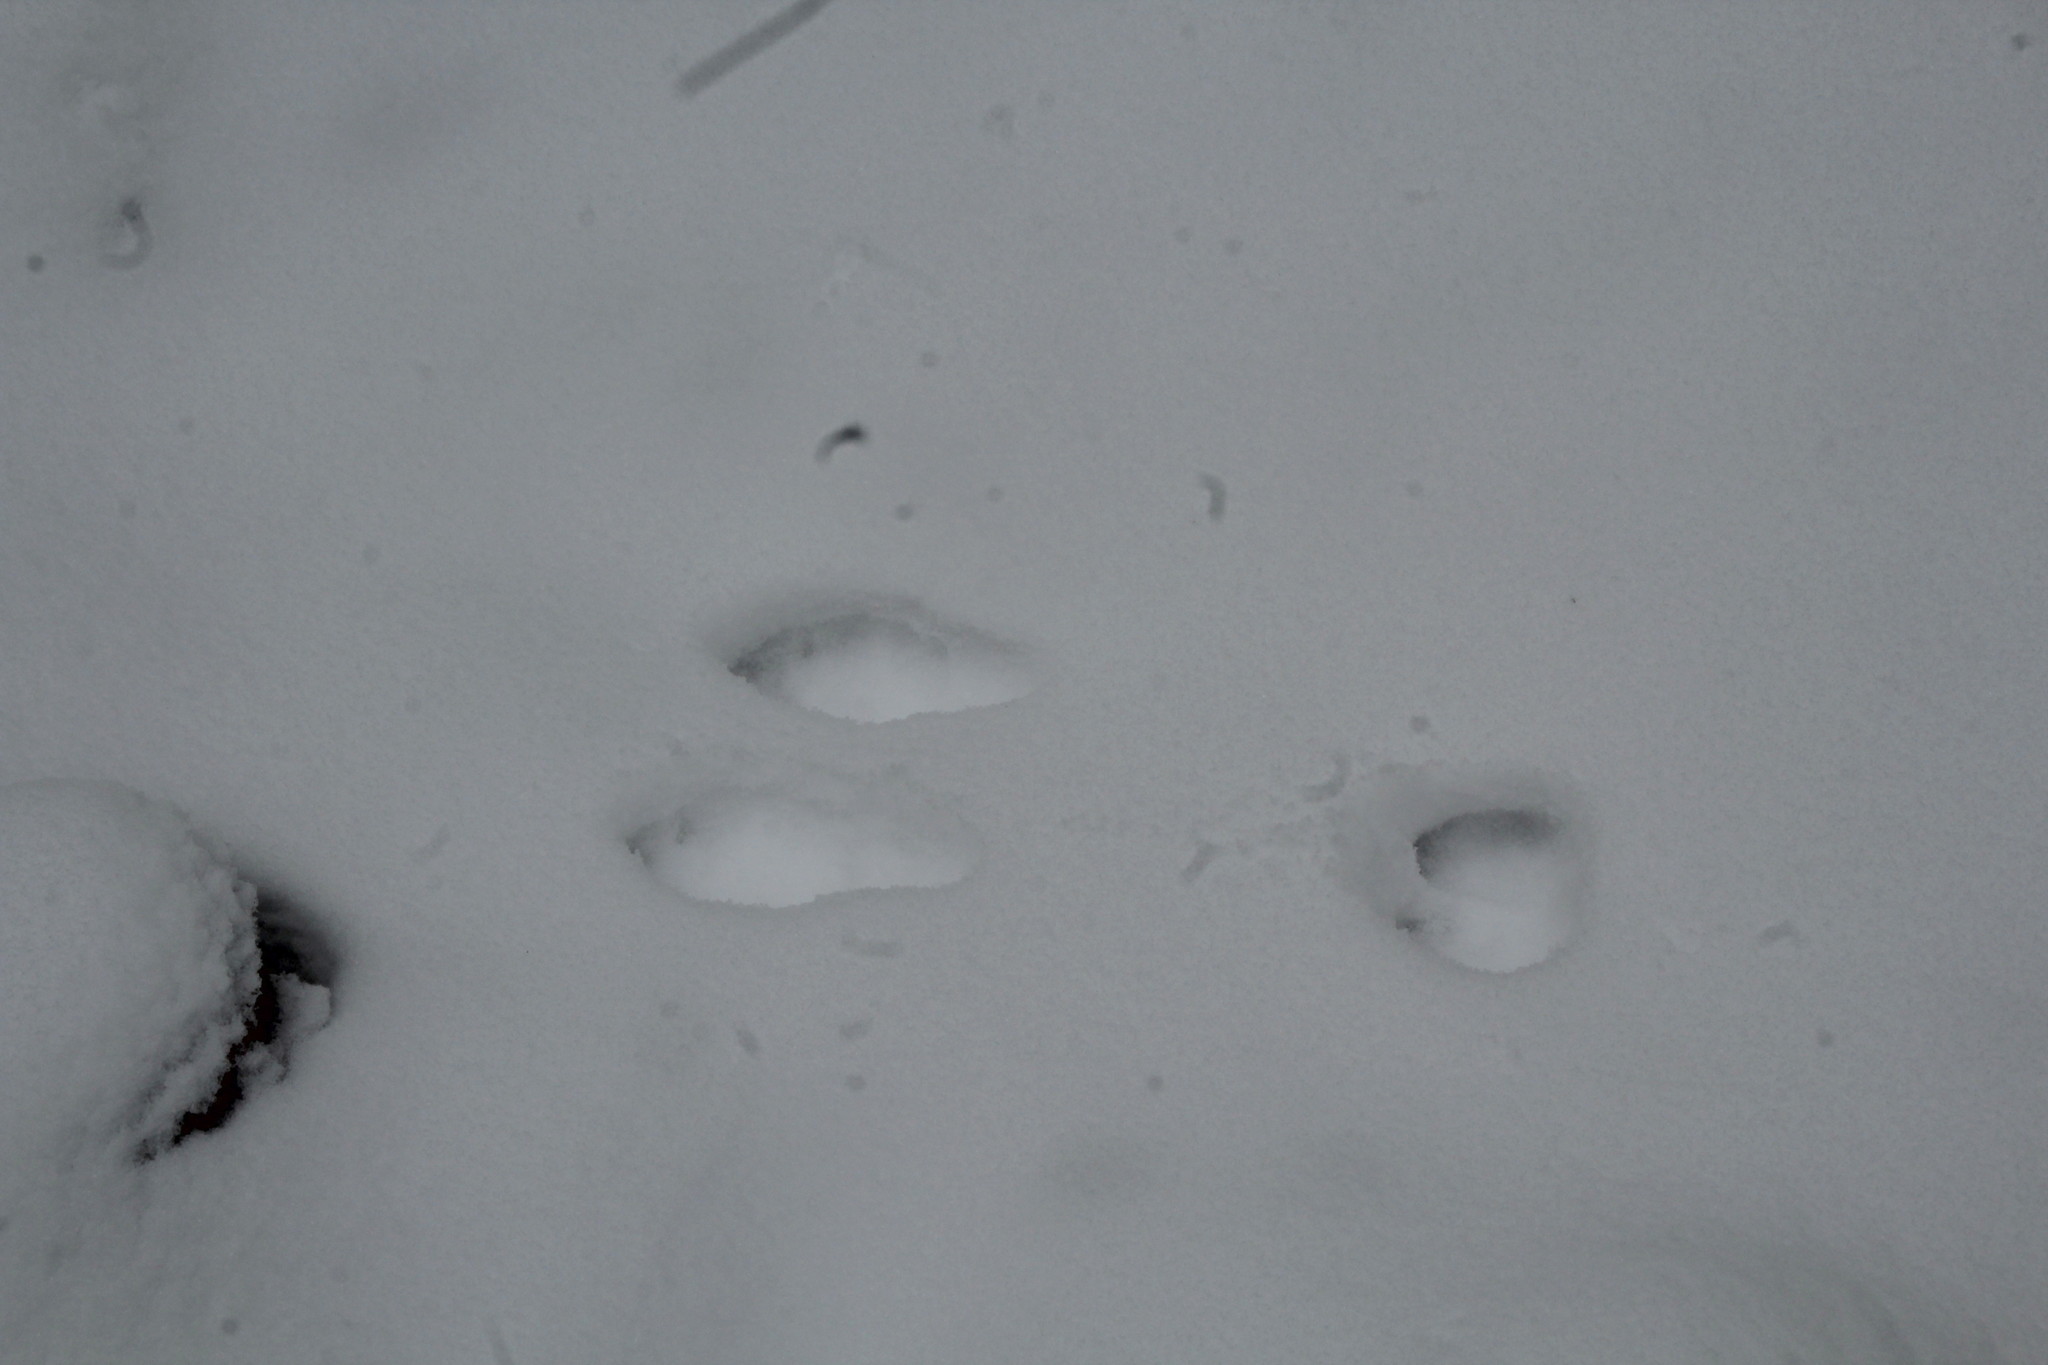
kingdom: Animalia
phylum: Chordata
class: Mammalia
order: Lagomorpha
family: Leporidae
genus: Lepus
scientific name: Lepus americanus
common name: Snowshoe hare
